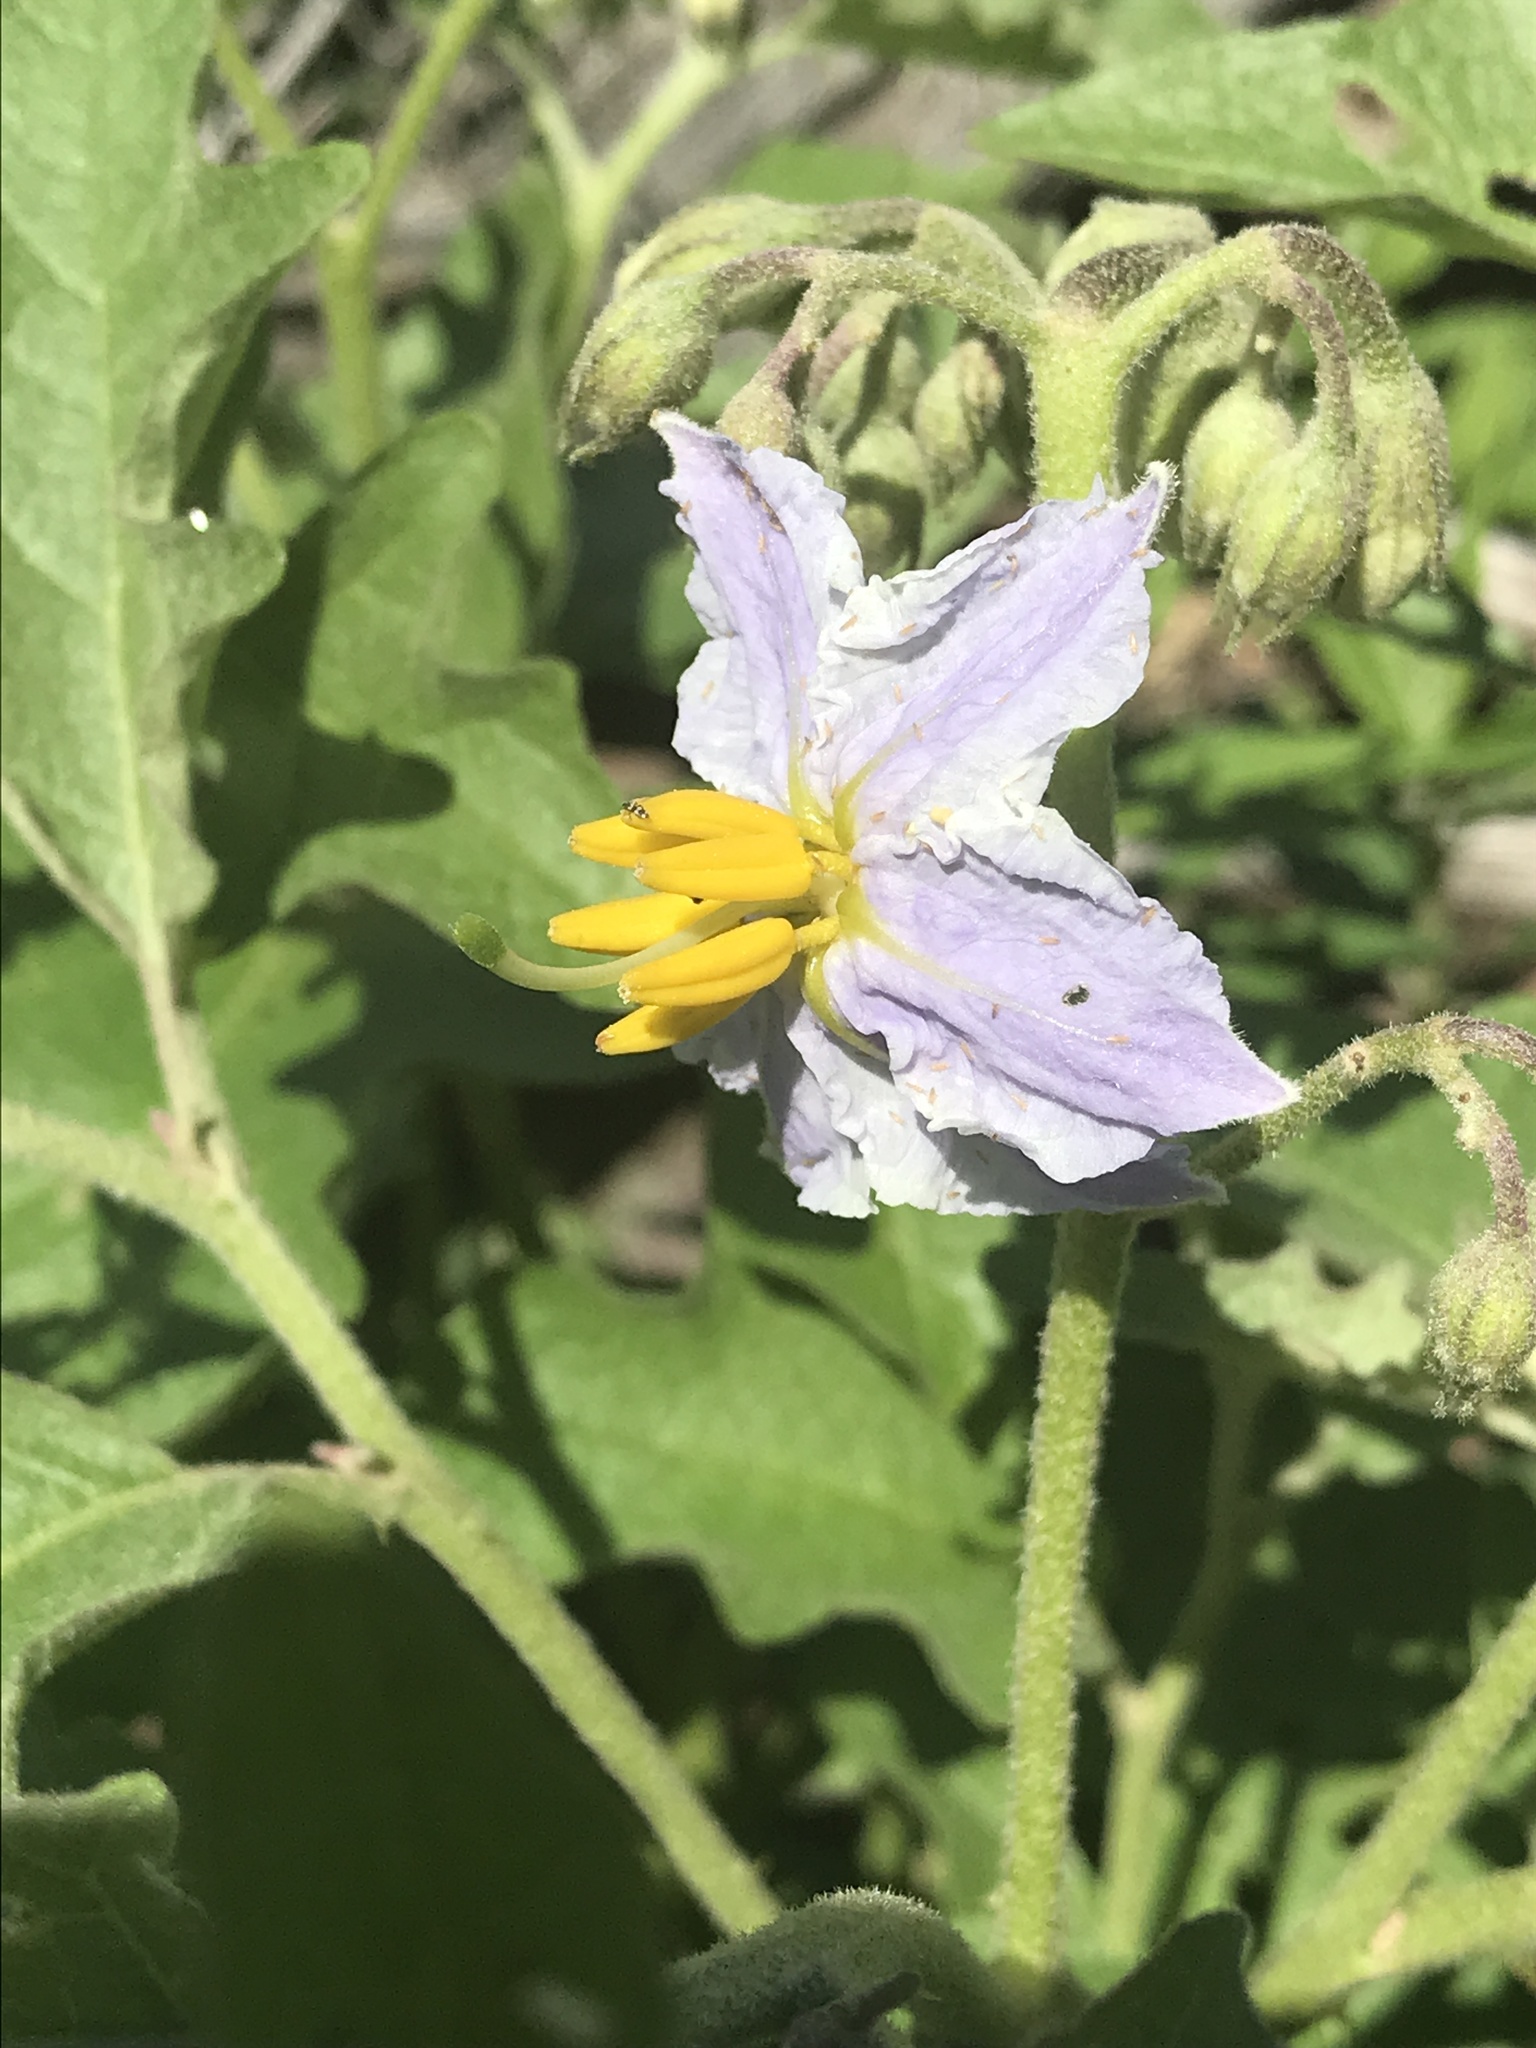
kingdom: Plantae
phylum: Tracheophyta
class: Magnoliopsida
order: Solanales
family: Solanaceae
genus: Solanum
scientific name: Solanum dimidiatum
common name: Carolina horse-nettle
